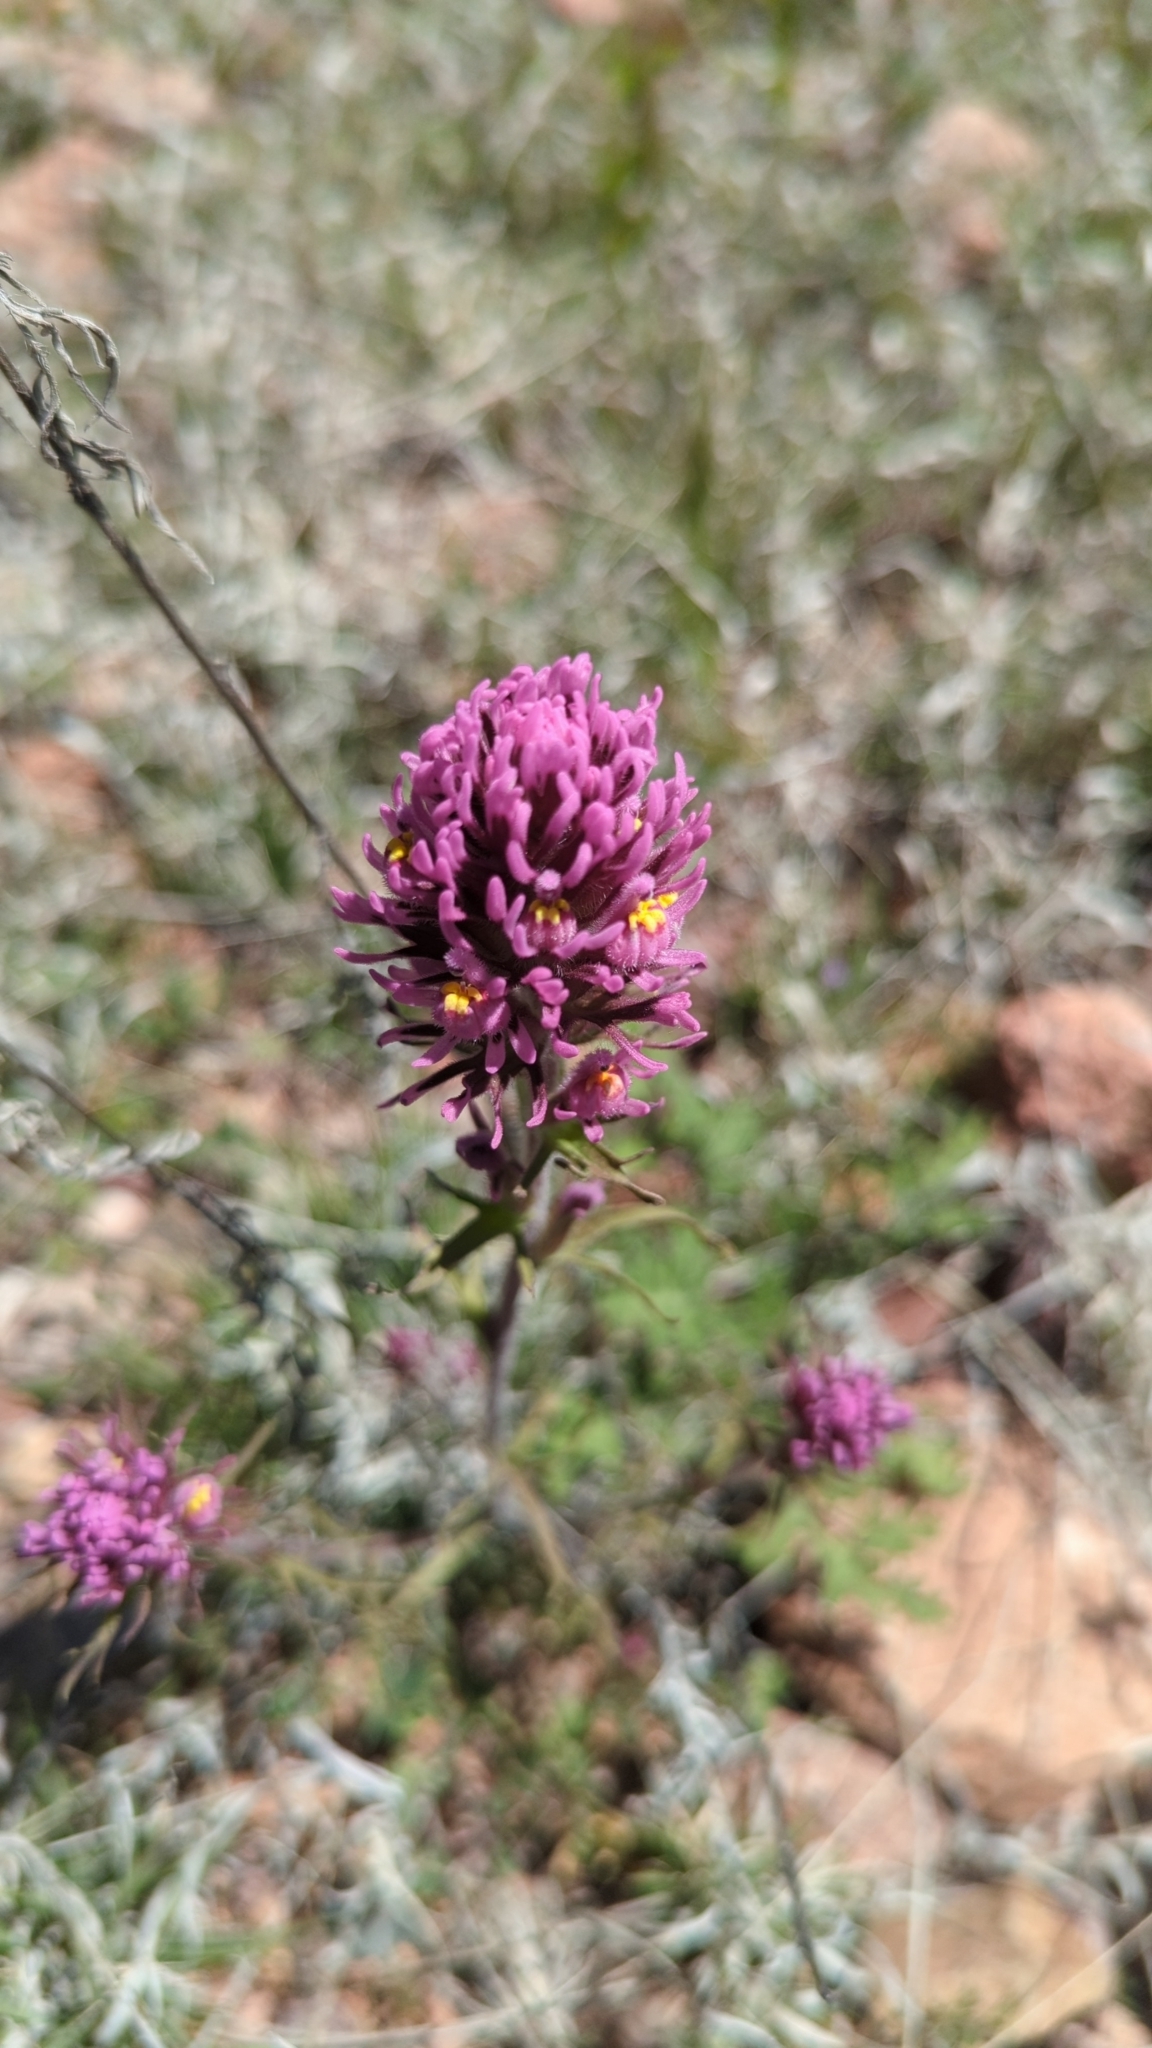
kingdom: Plantae
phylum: Tracheophyta
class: Magnoliopsida
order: Lamiales
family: Orobanchaceae
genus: Castilleja
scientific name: Castilleja exserta
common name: Purple owl-clover
